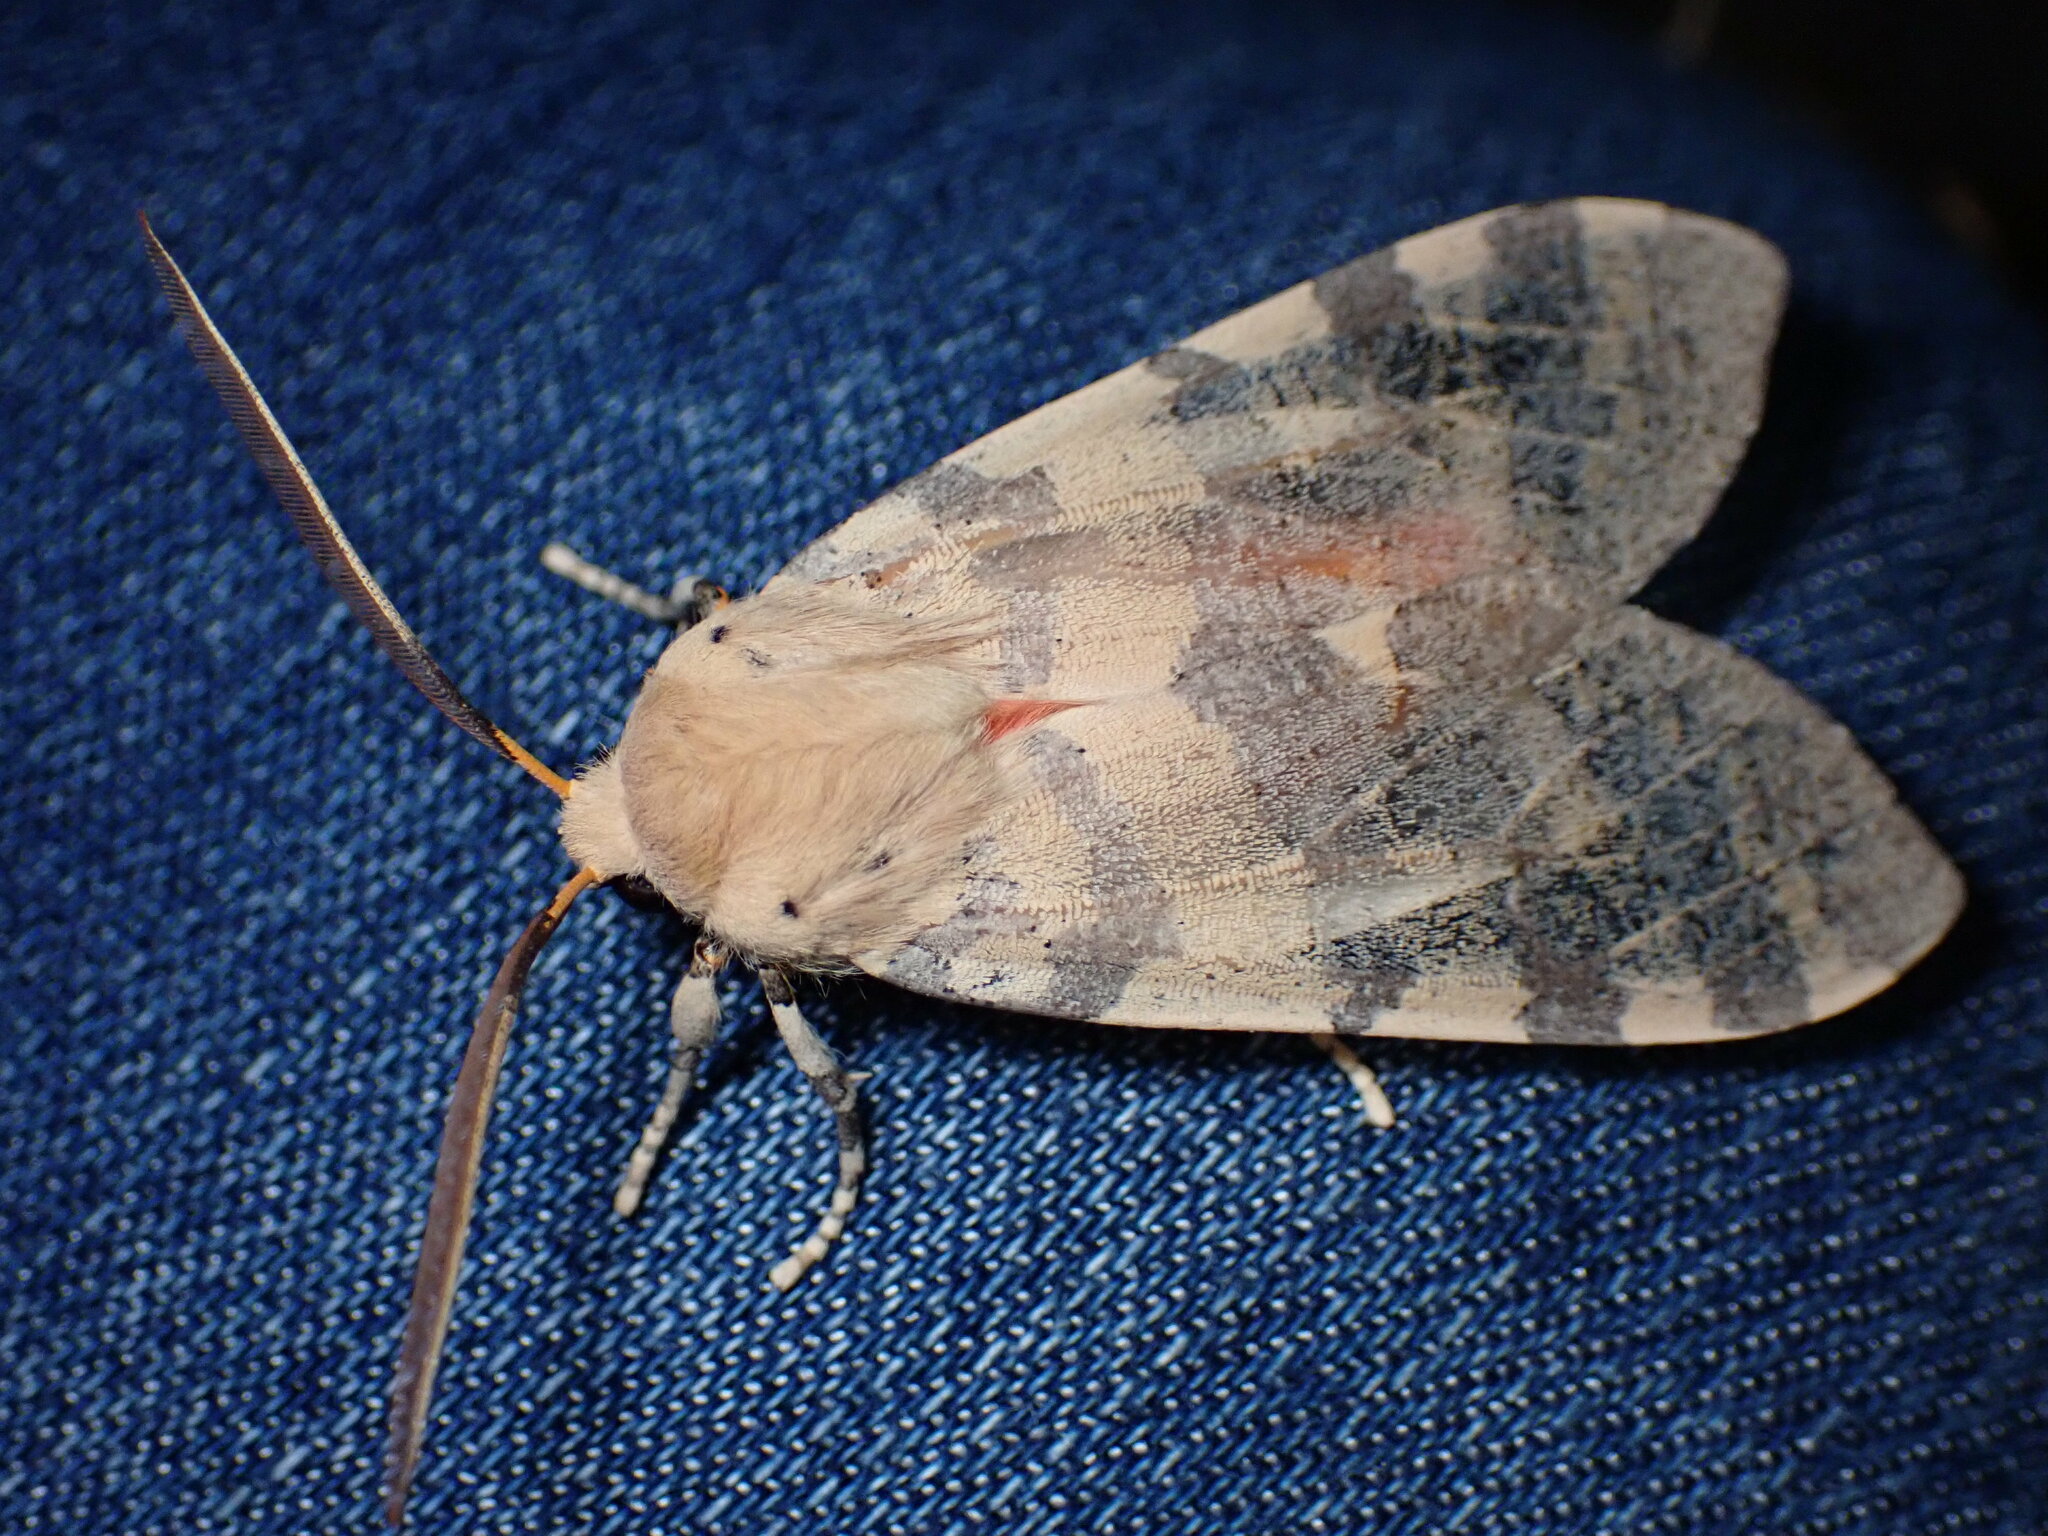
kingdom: Animalia
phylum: Arthropoda
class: Insecta
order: Lepidoptera
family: Erebidae
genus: Hemihyalea
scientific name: Hemihyalea edwardsii
